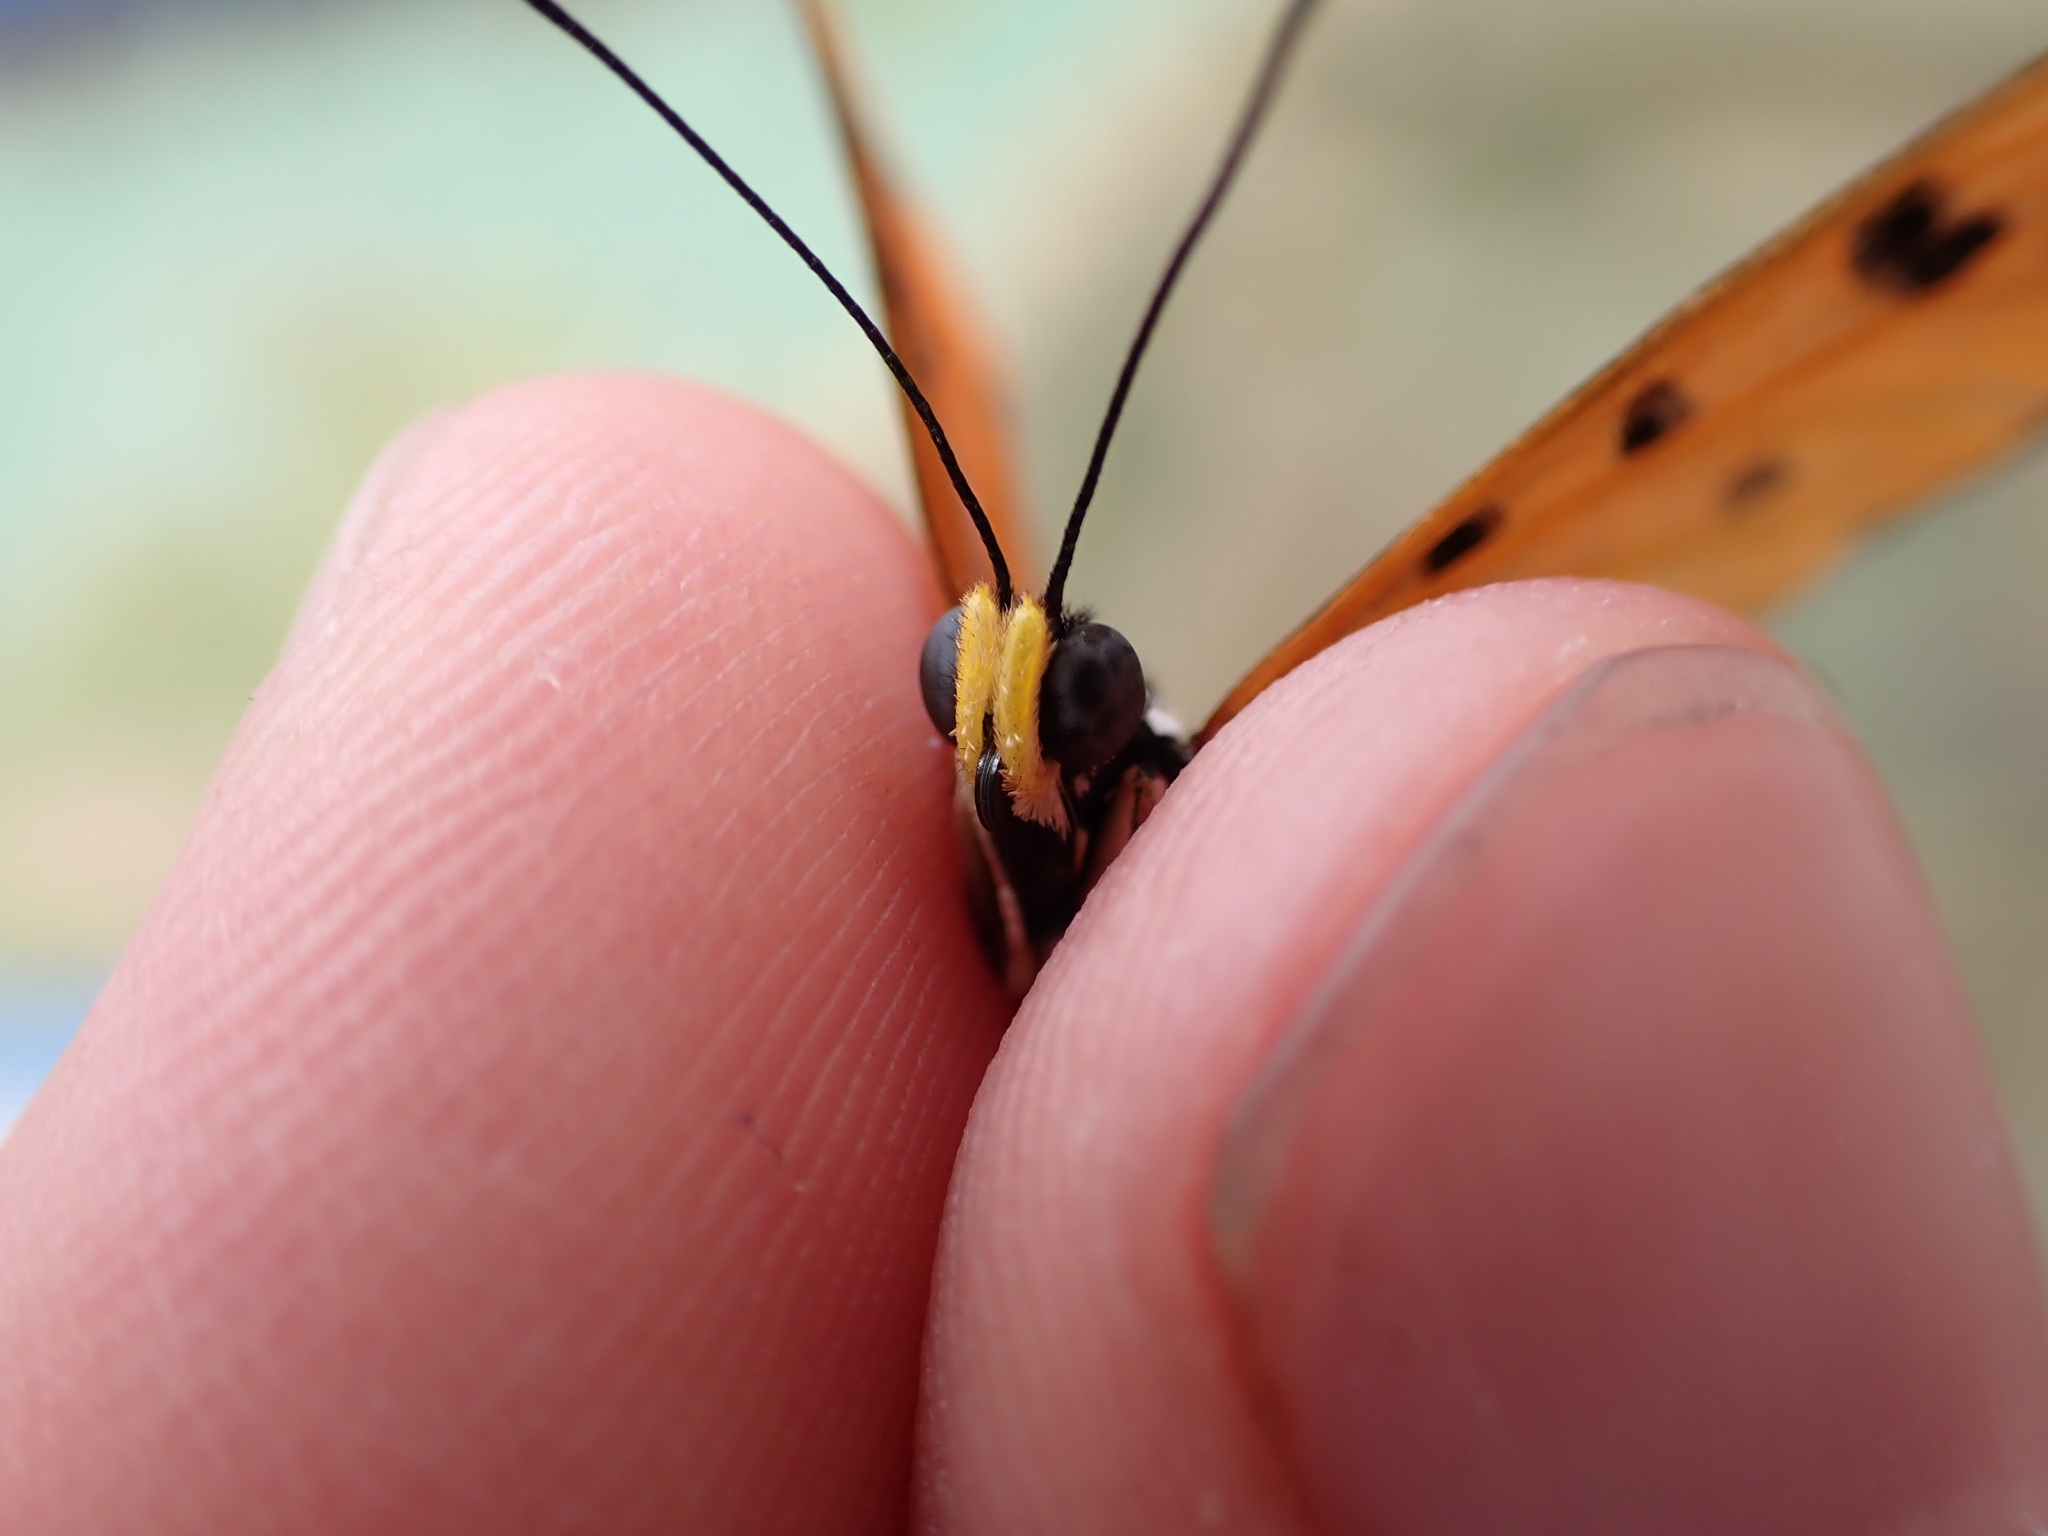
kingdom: Animalia
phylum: Arthropoda
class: Insecta
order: Lepidoptera
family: Nymphalidae
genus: Acraea
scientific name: Acraea terpsicore
